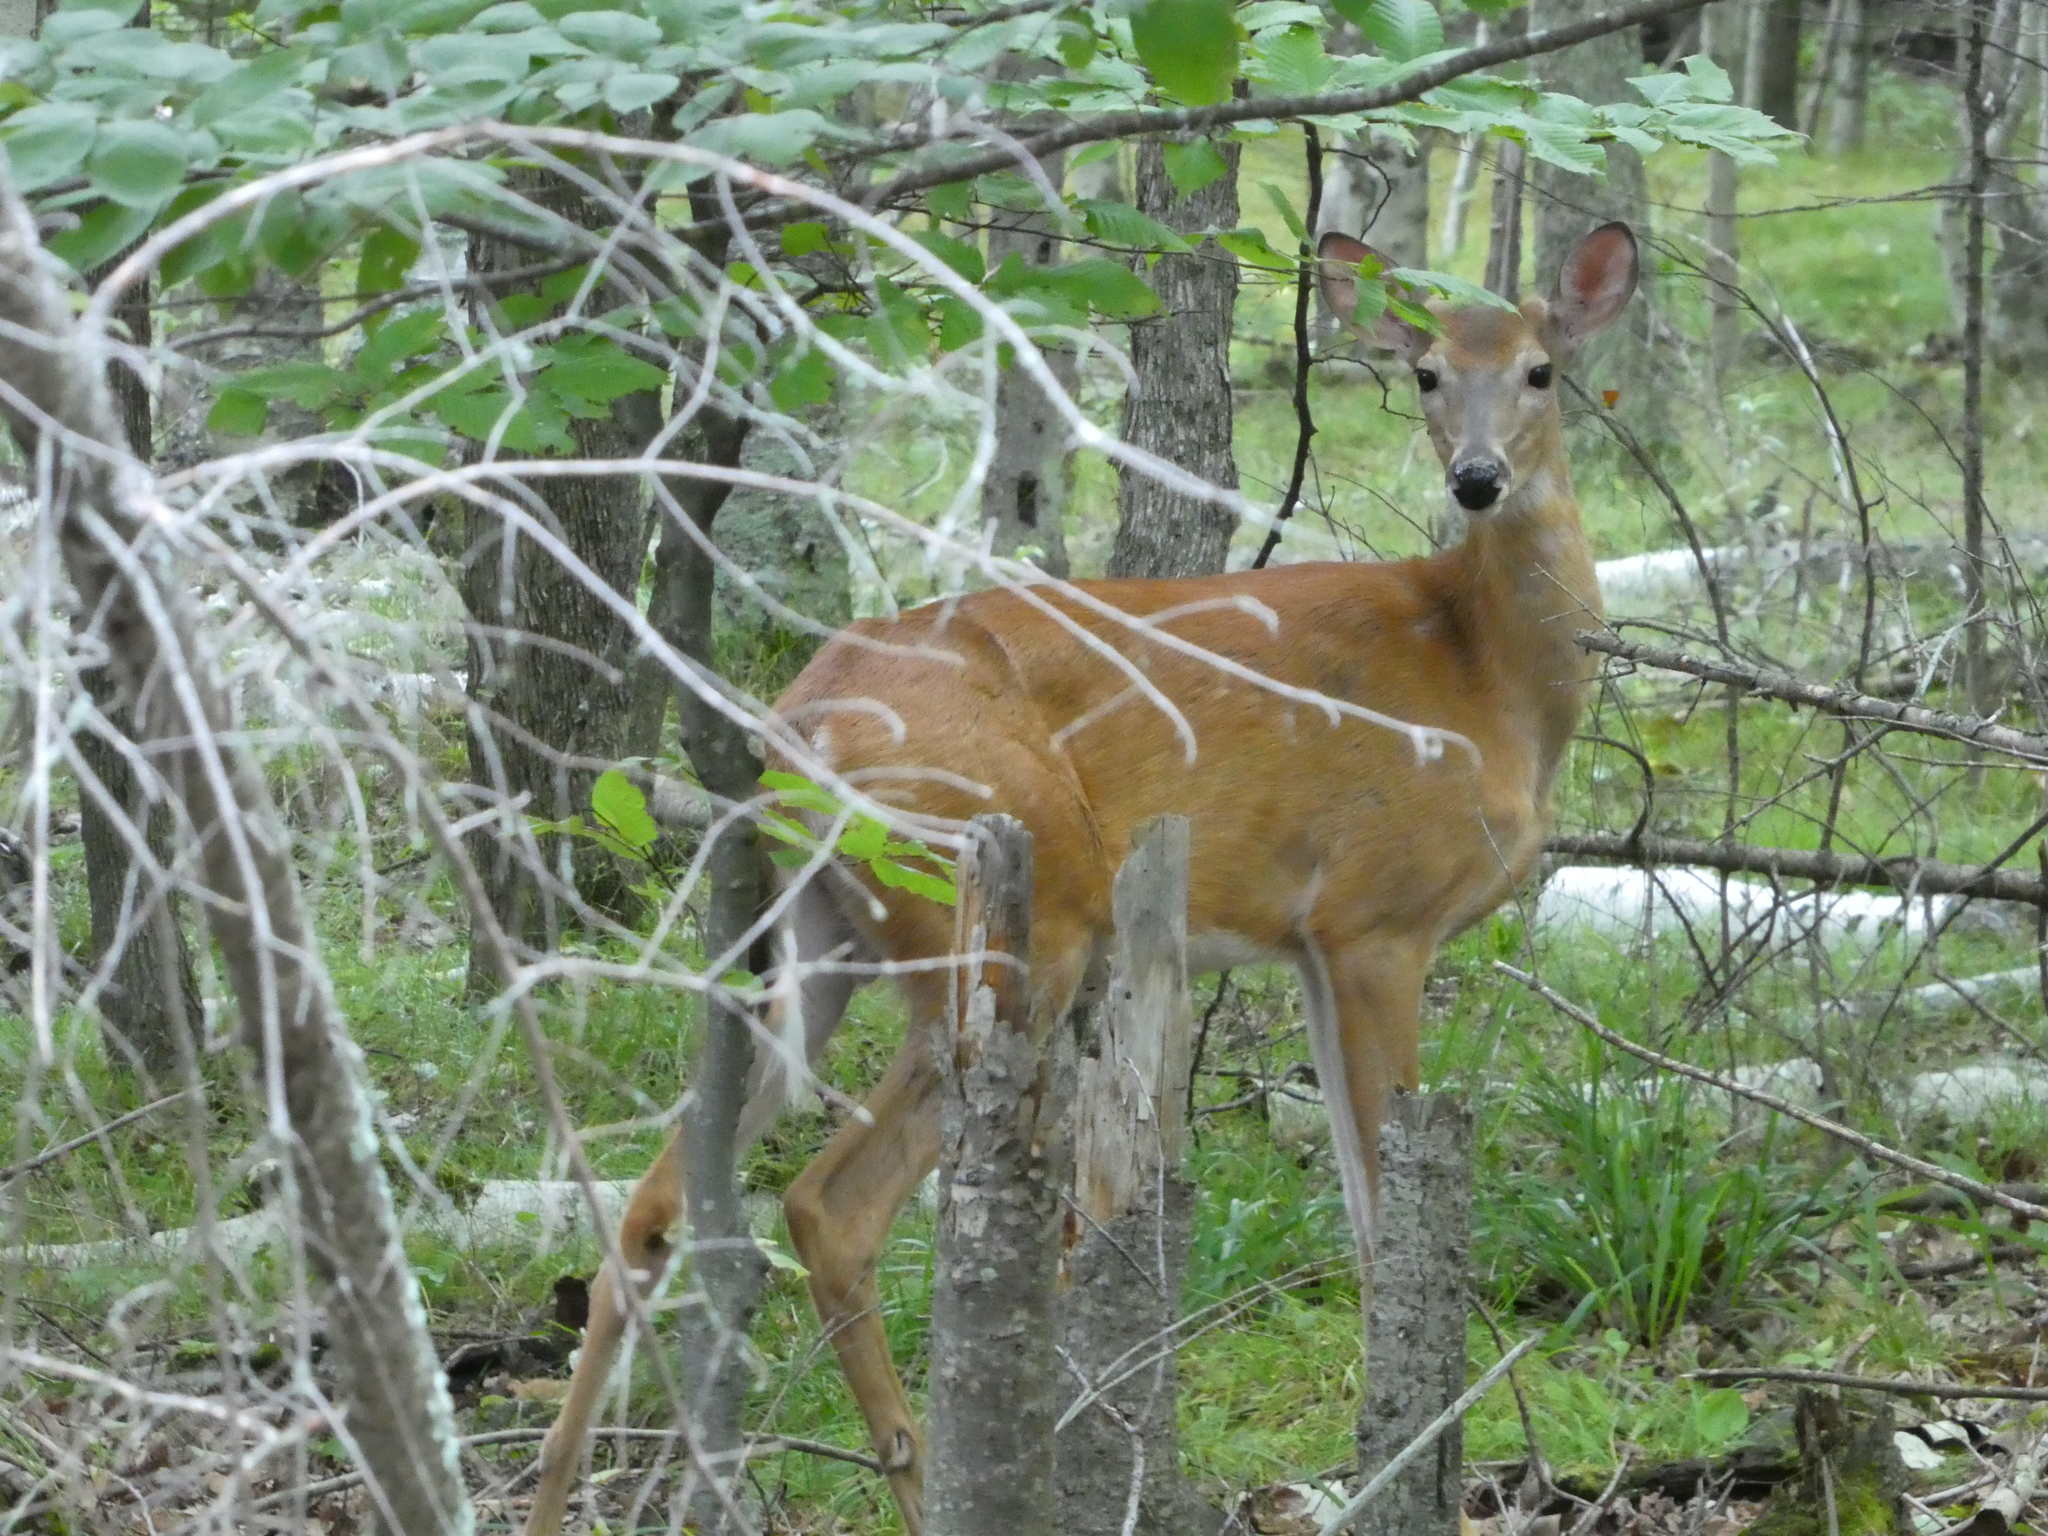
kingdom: Animalia
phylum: Chordata
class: Mammalia
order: Artiodactyla
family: Cervidae
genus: Odocoileus
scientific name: Odocoileus virginianus
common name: White-tailed deer
